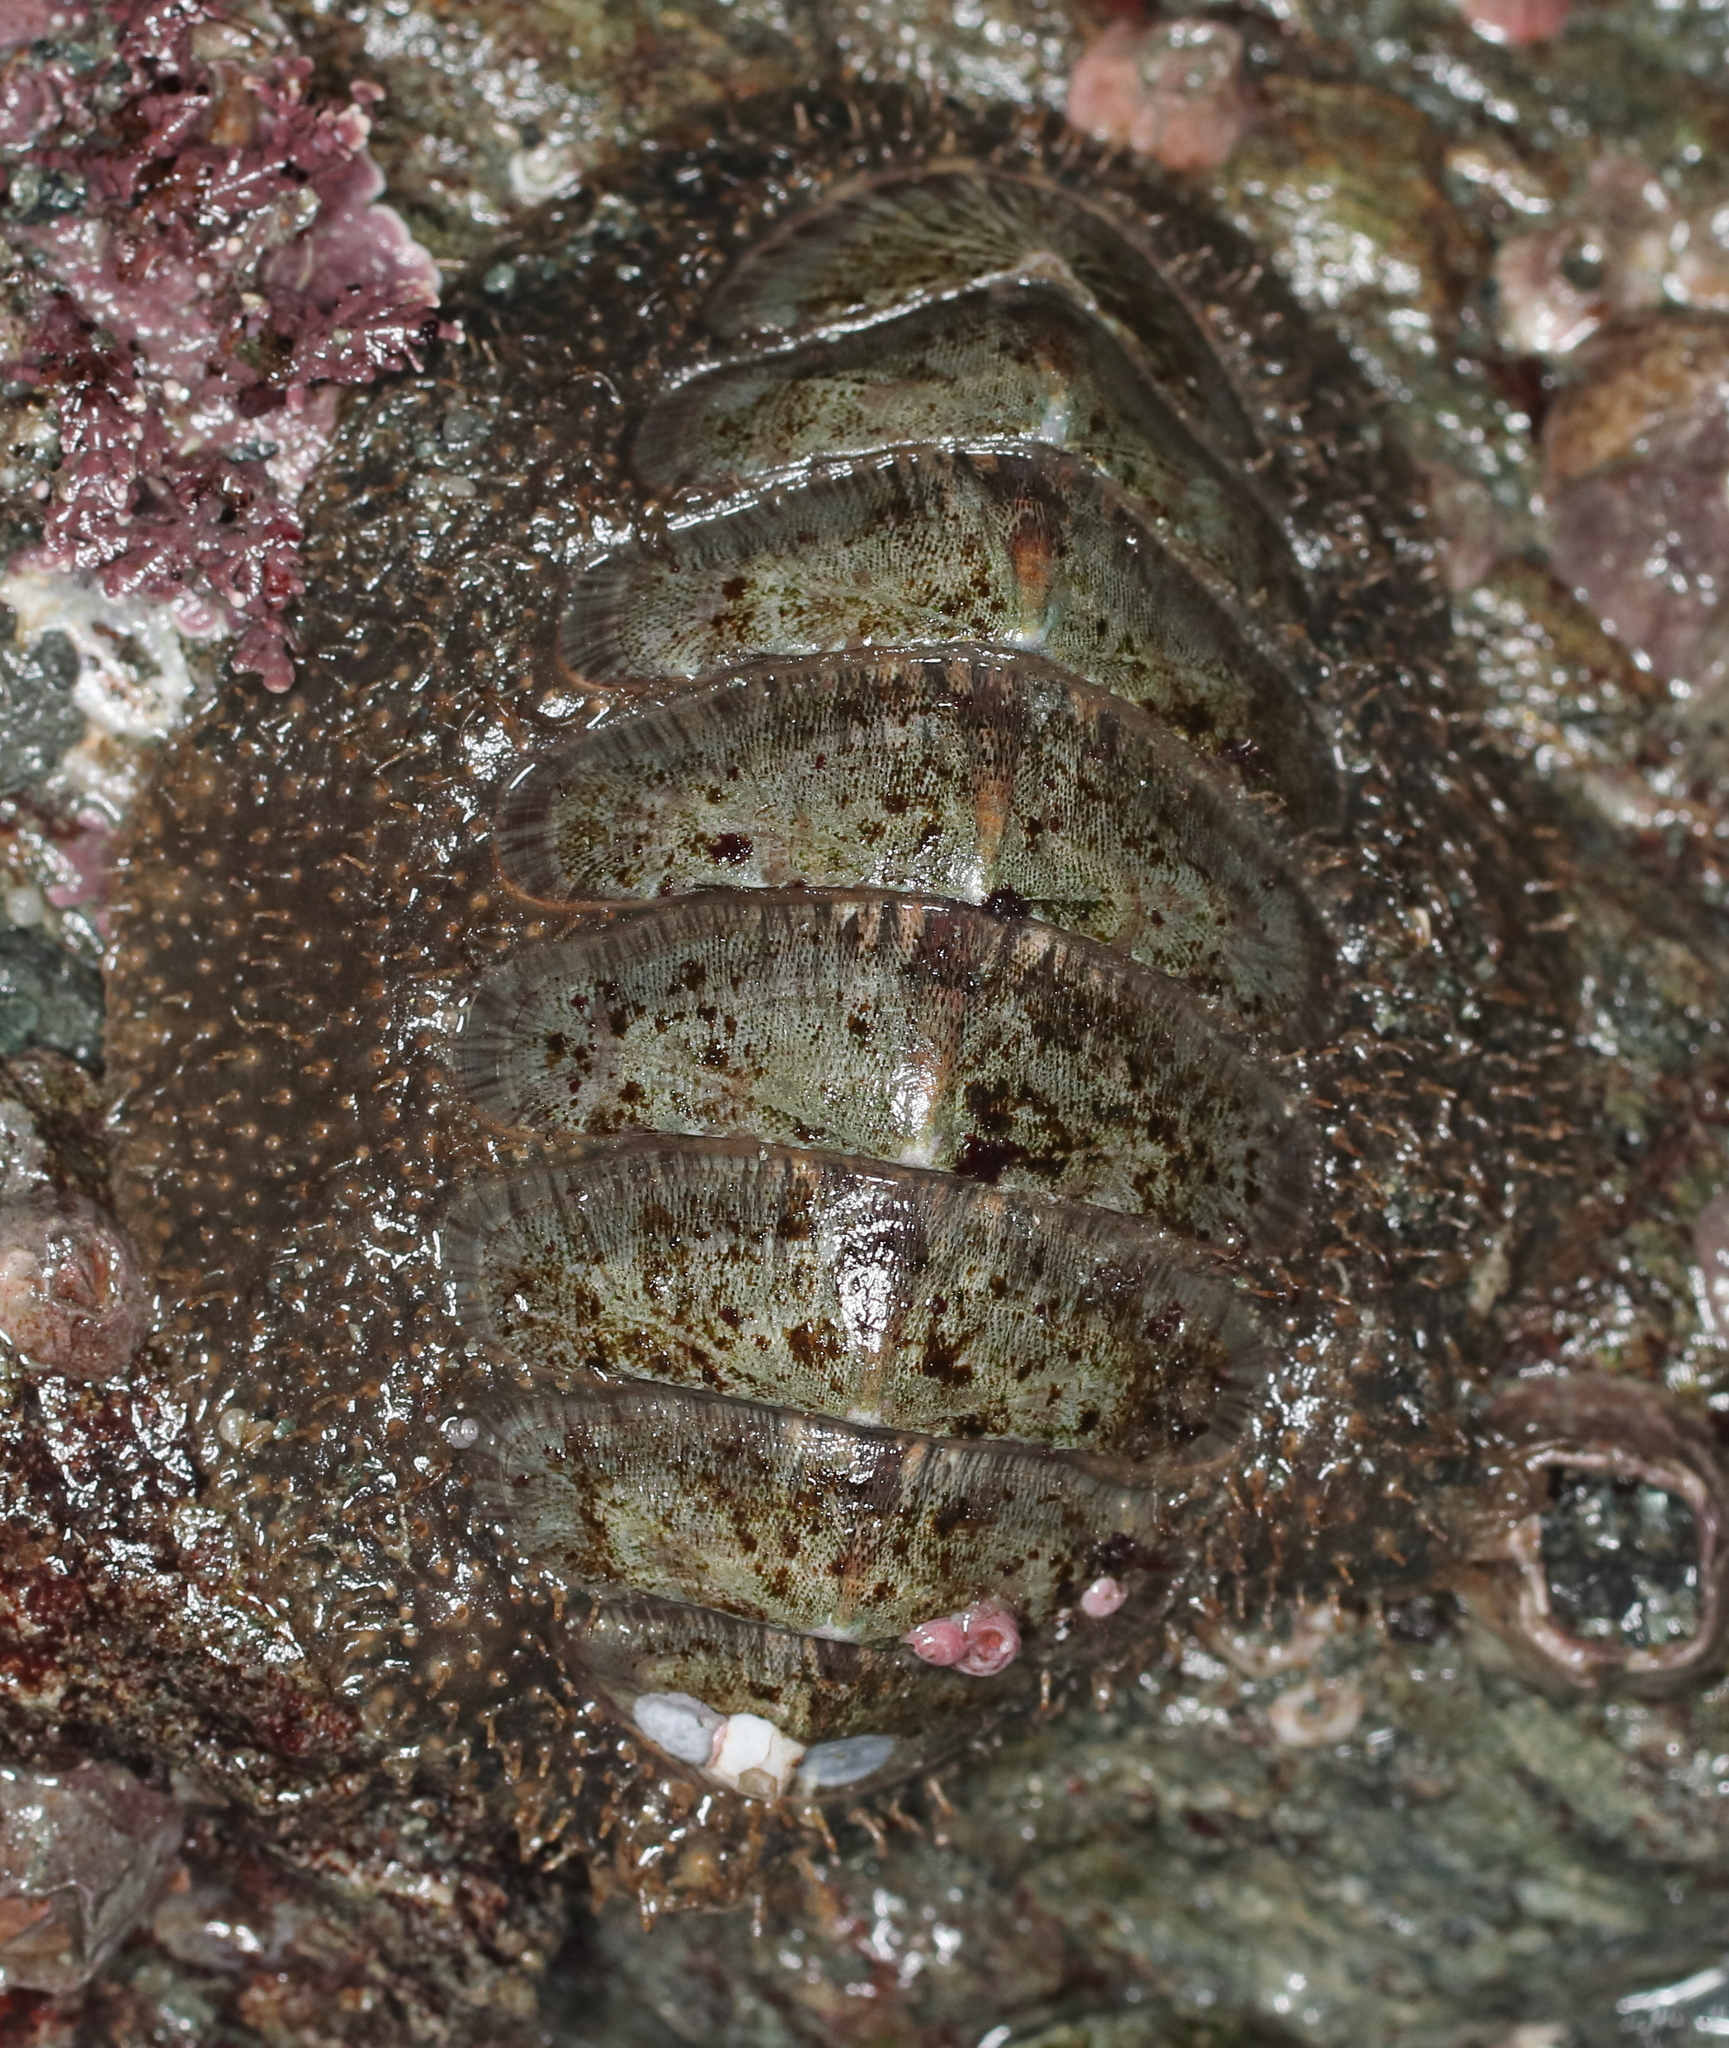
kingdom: Animalia
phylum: Mollusca
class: Polyplacophora
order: Chitonida
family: Mopaliidae
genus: Mopalia
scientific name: Mopalia lignosa
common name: Woody chiton
